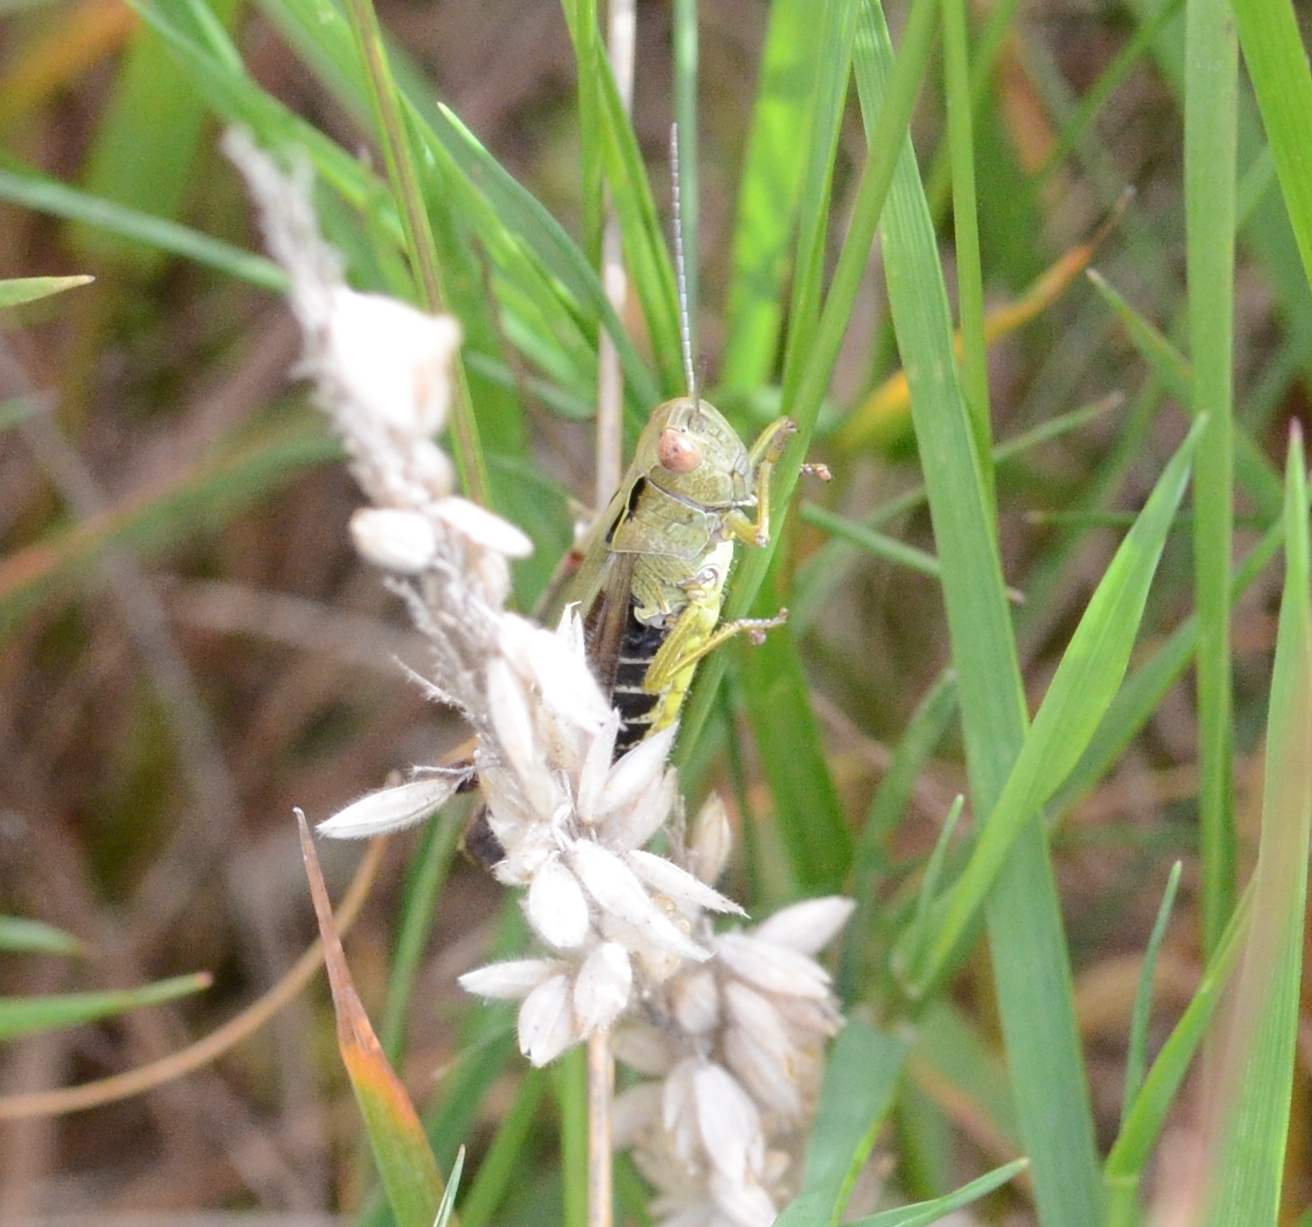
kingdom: Animalia
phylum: Arthropoda
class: Insecta
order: Orthoptera
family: Acrididae
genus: Omocestus
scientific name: Omocestus viridulus
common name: Common green grasshopper
